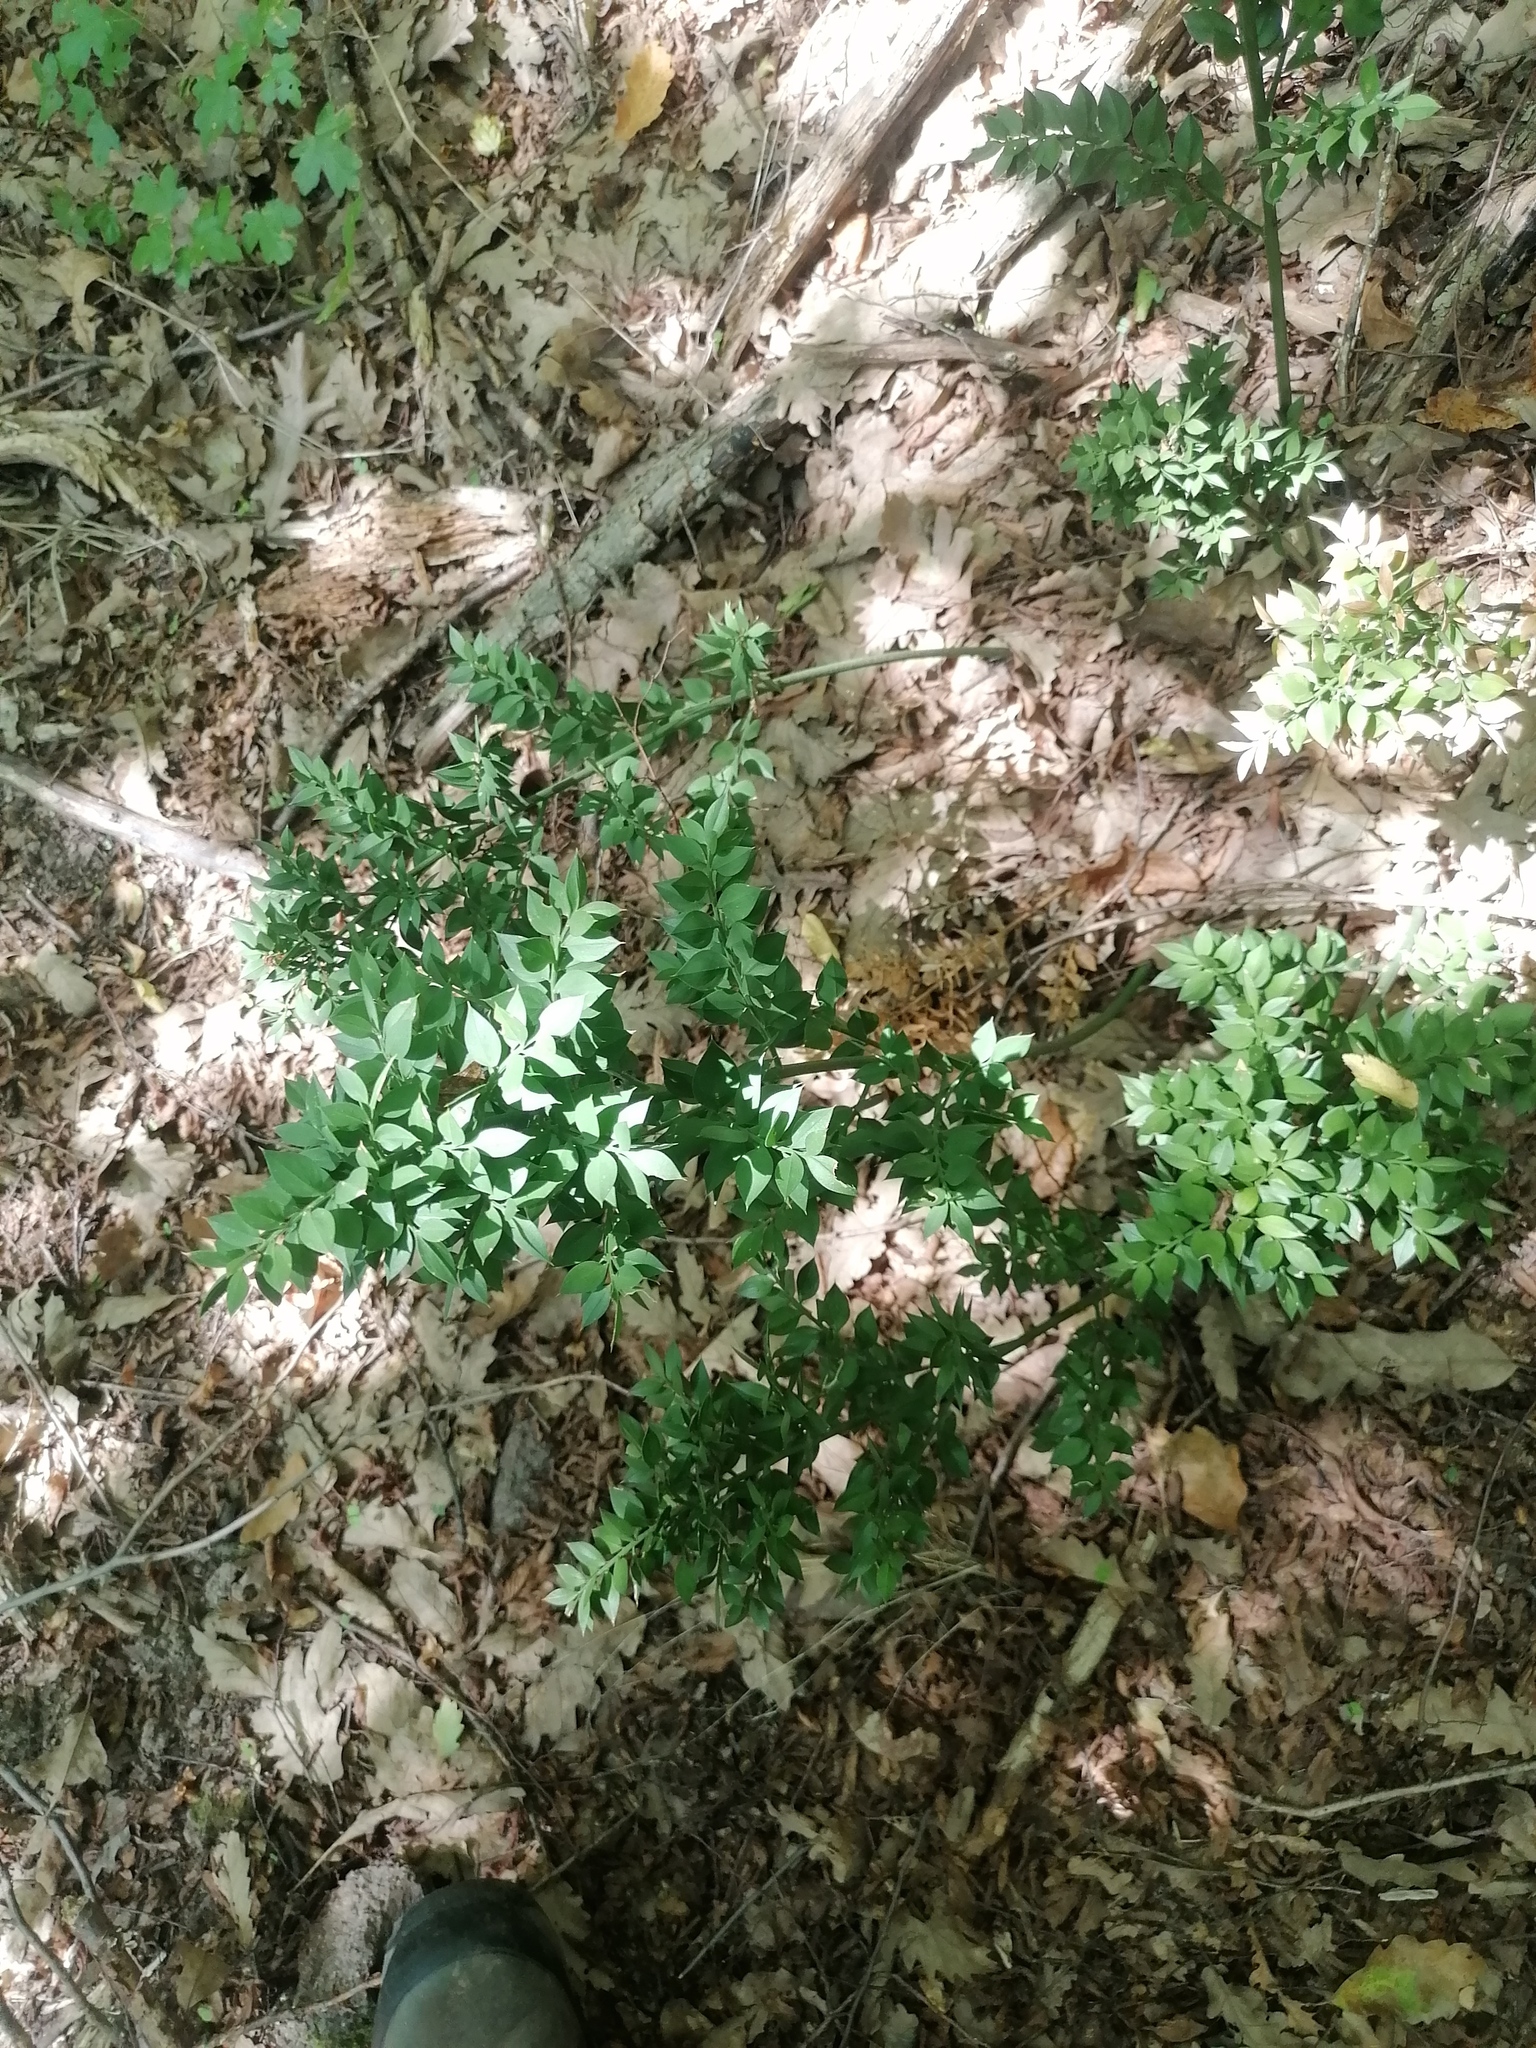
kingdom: Plantae
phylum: Tracheophyta
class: Liliopsida
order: Asparagales
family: Asparagaceae
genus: Ruscus
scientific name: Ruscus aculeatus
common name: Butcher's-broom
